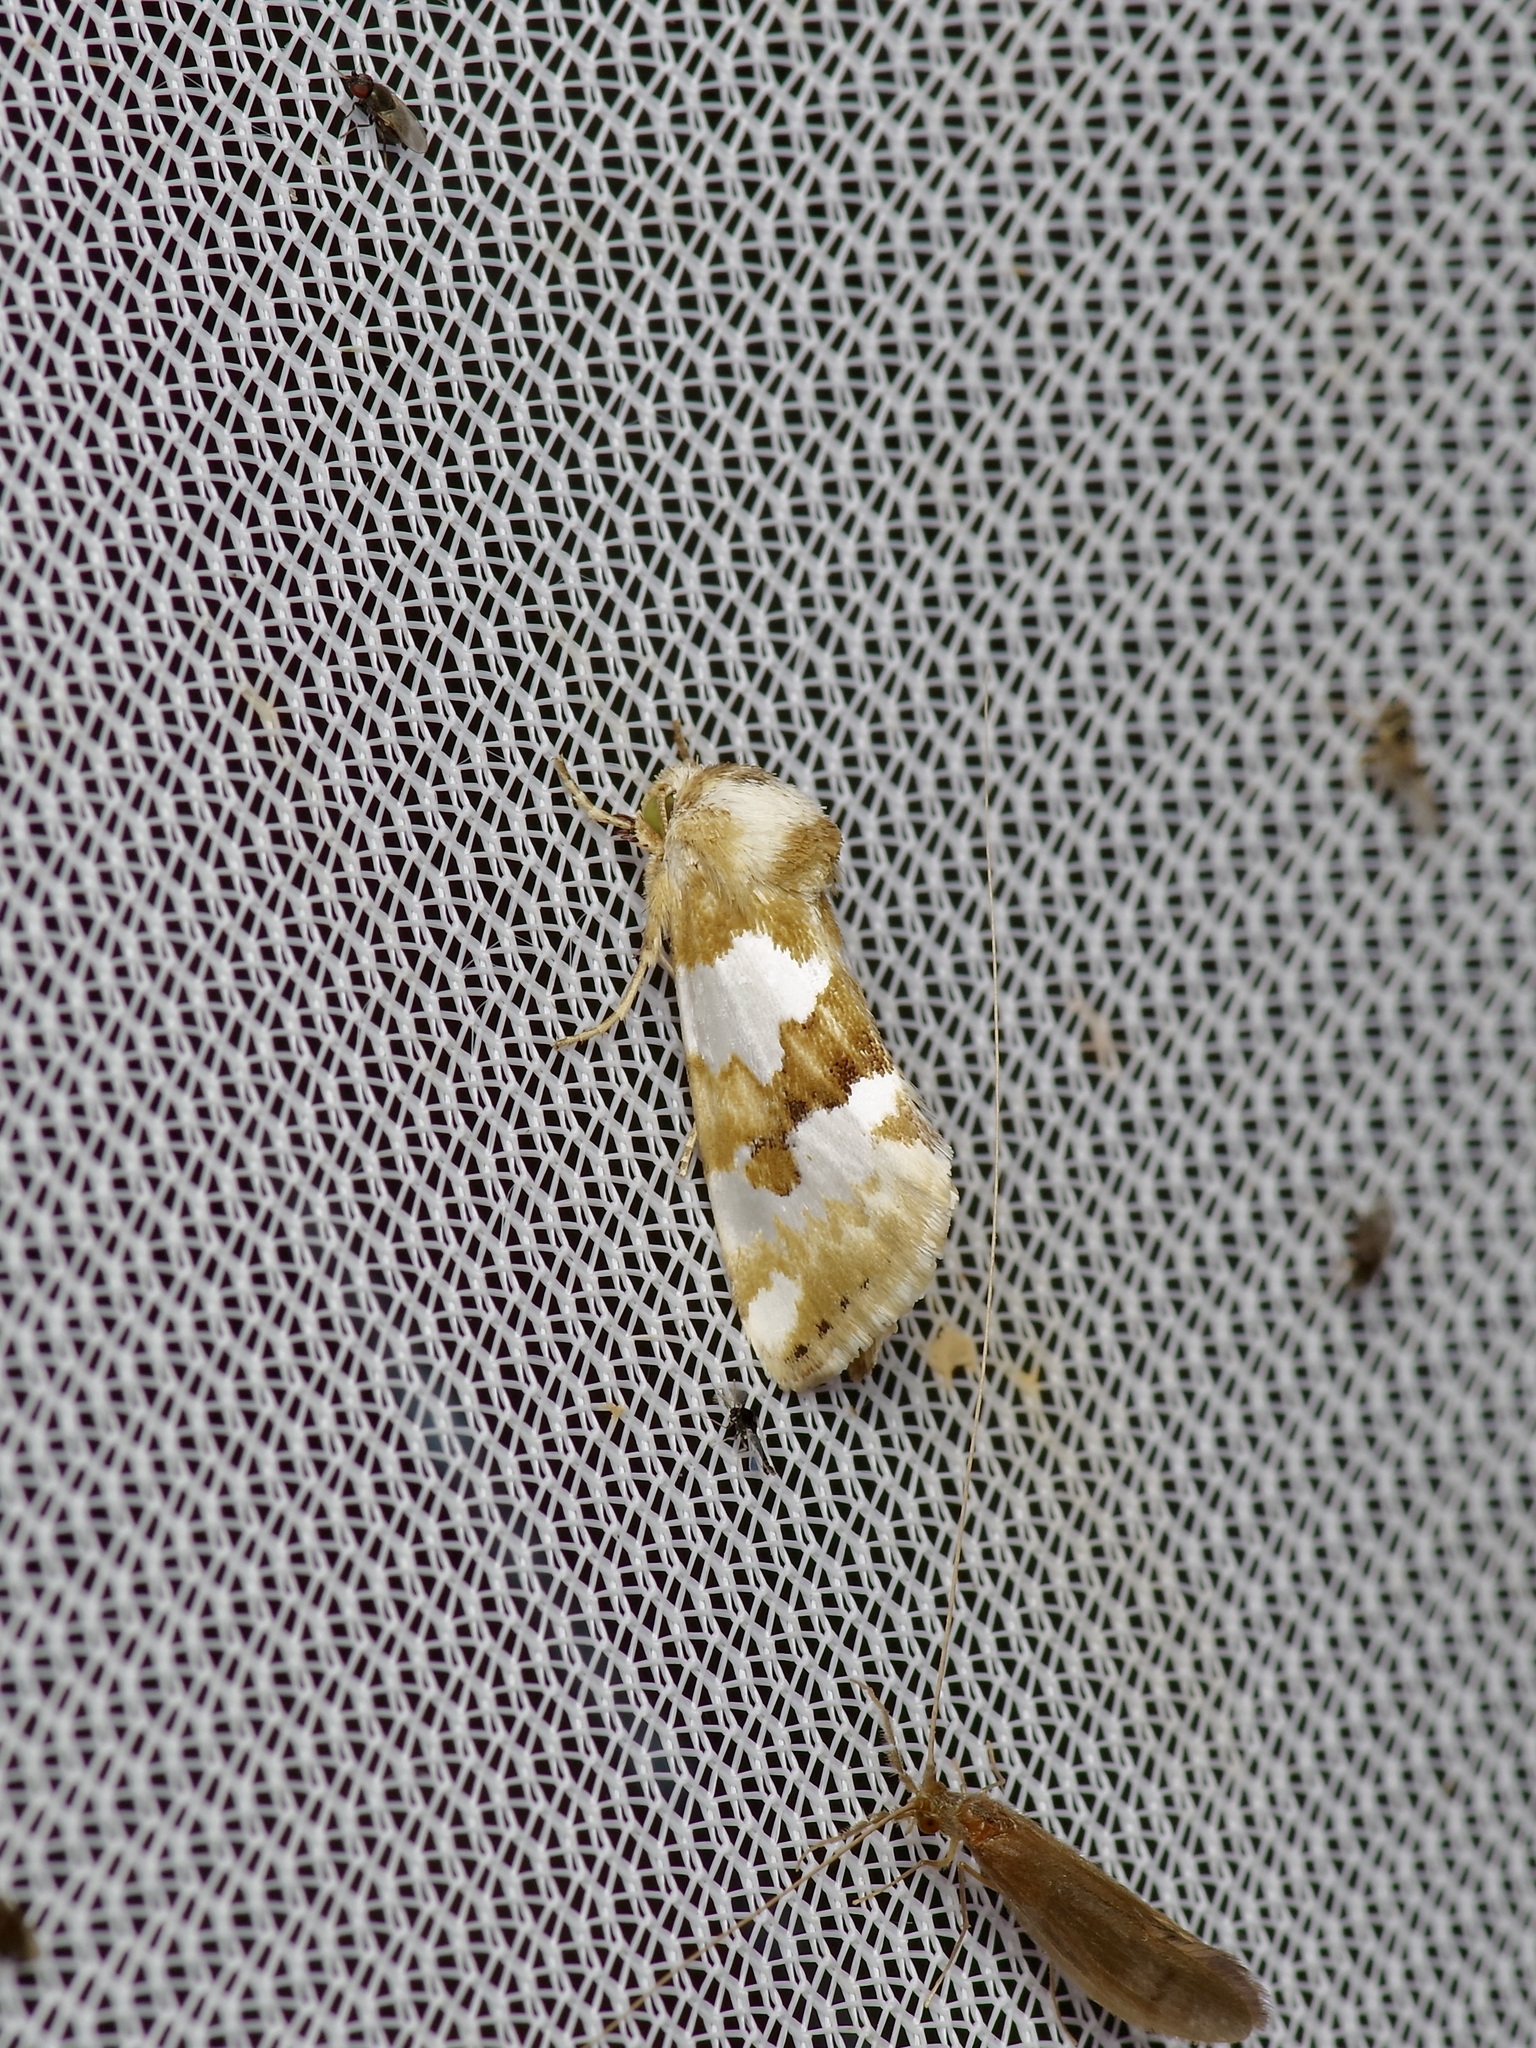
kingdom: Animalia
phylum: Arthropoda
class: Insecta
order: Lepidoptera
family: Noctuidae
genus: Schinia
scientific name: Schinia chrysellus
